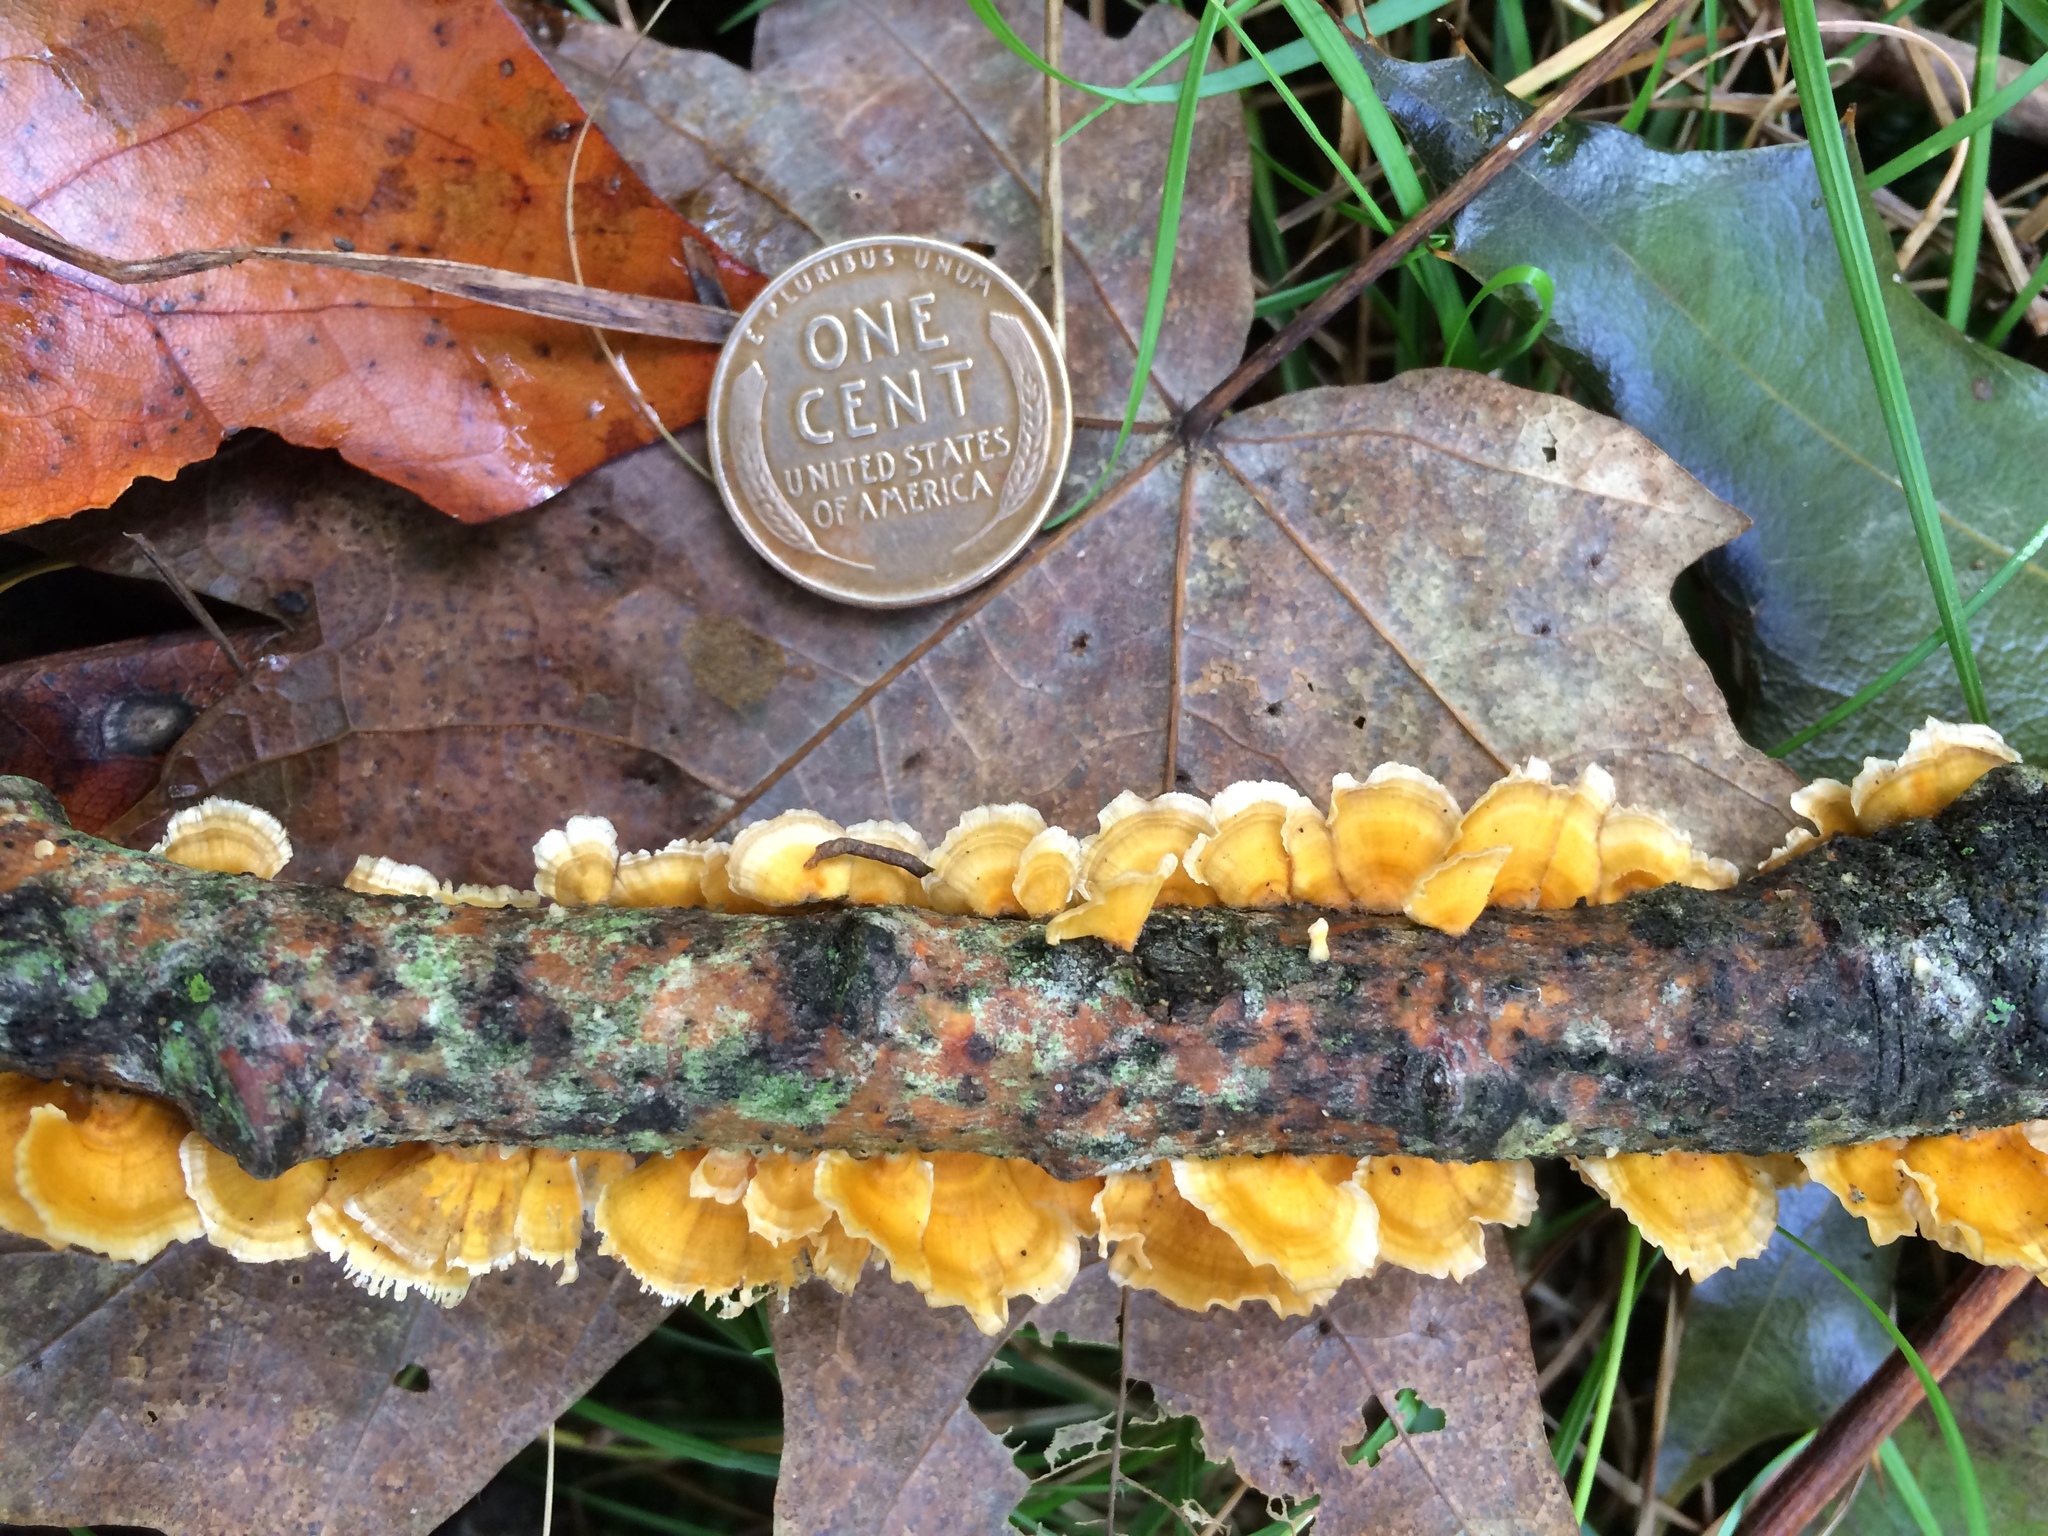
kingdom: Fungi
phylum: Basidiomycota
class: Agaricomycetes
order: Russulales
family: Stereaceae
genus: Stereum
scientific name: Stereum complicatum
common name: Crowded parchment
